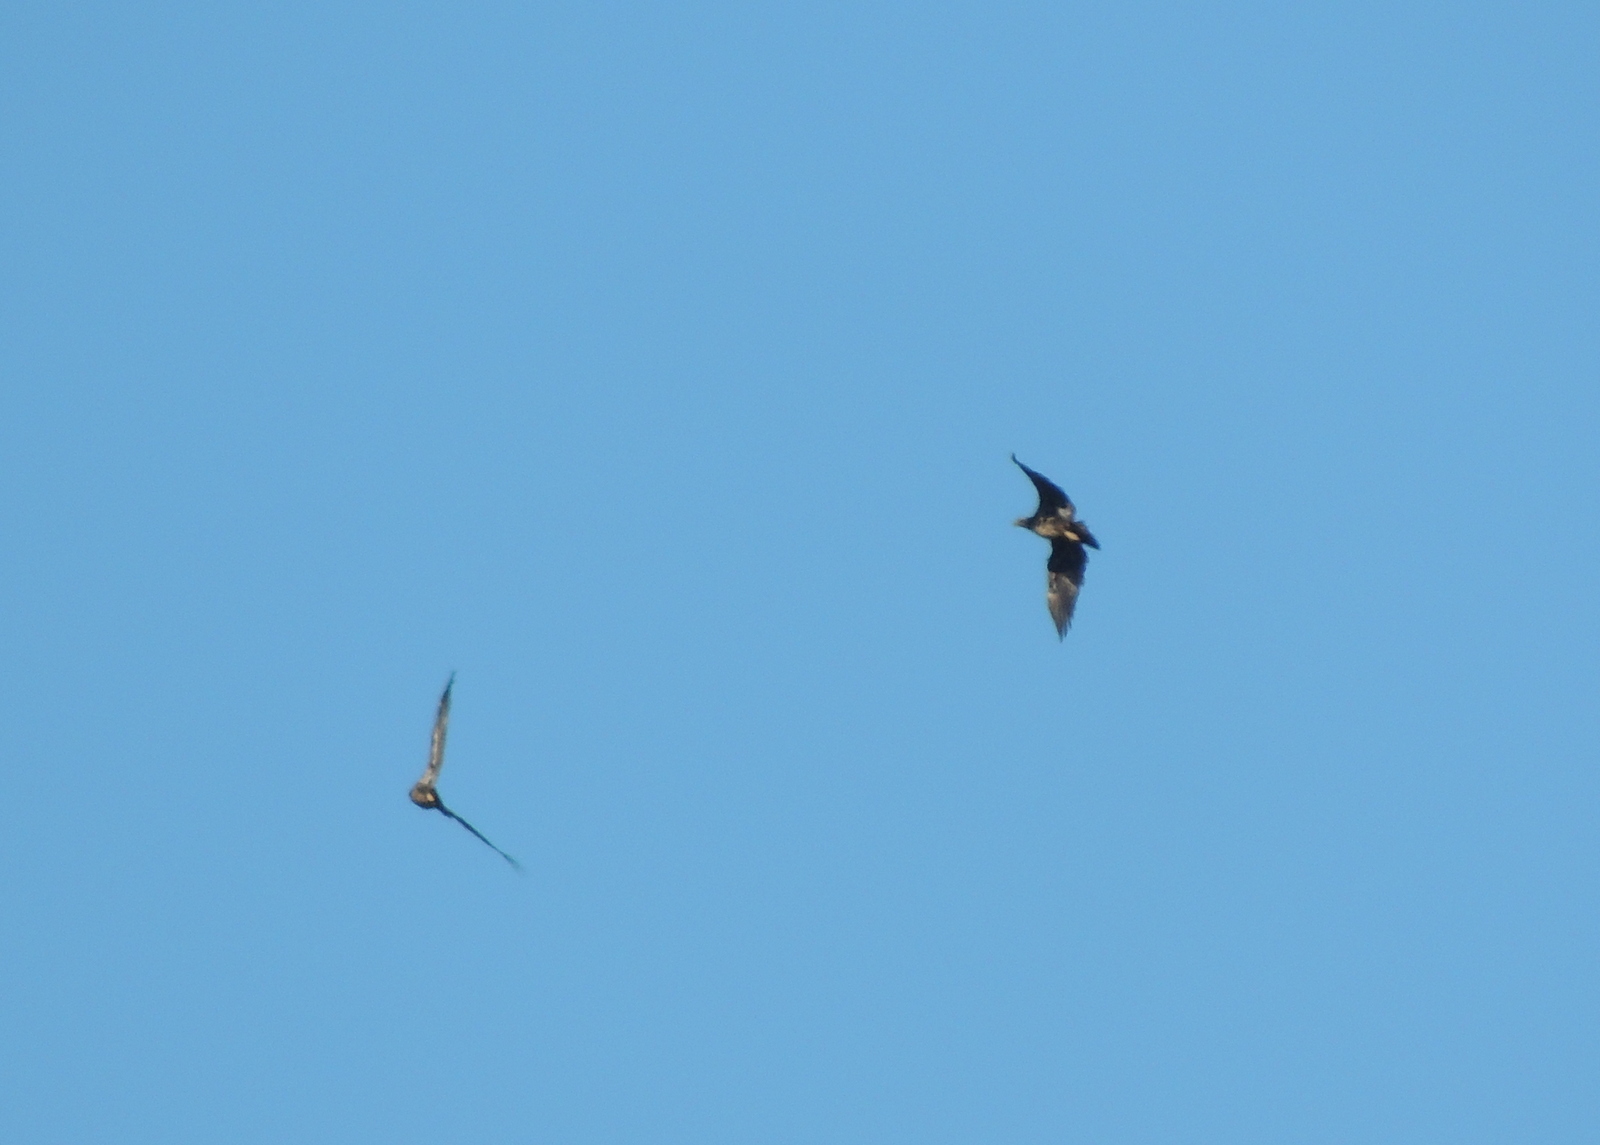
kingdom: Animalia
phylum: Chordata
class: Aves
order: Accipitriformes
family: Accipitridae
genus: Haliaeetus
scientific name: Haliaeetus leucocephalus
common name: Bald eagle
